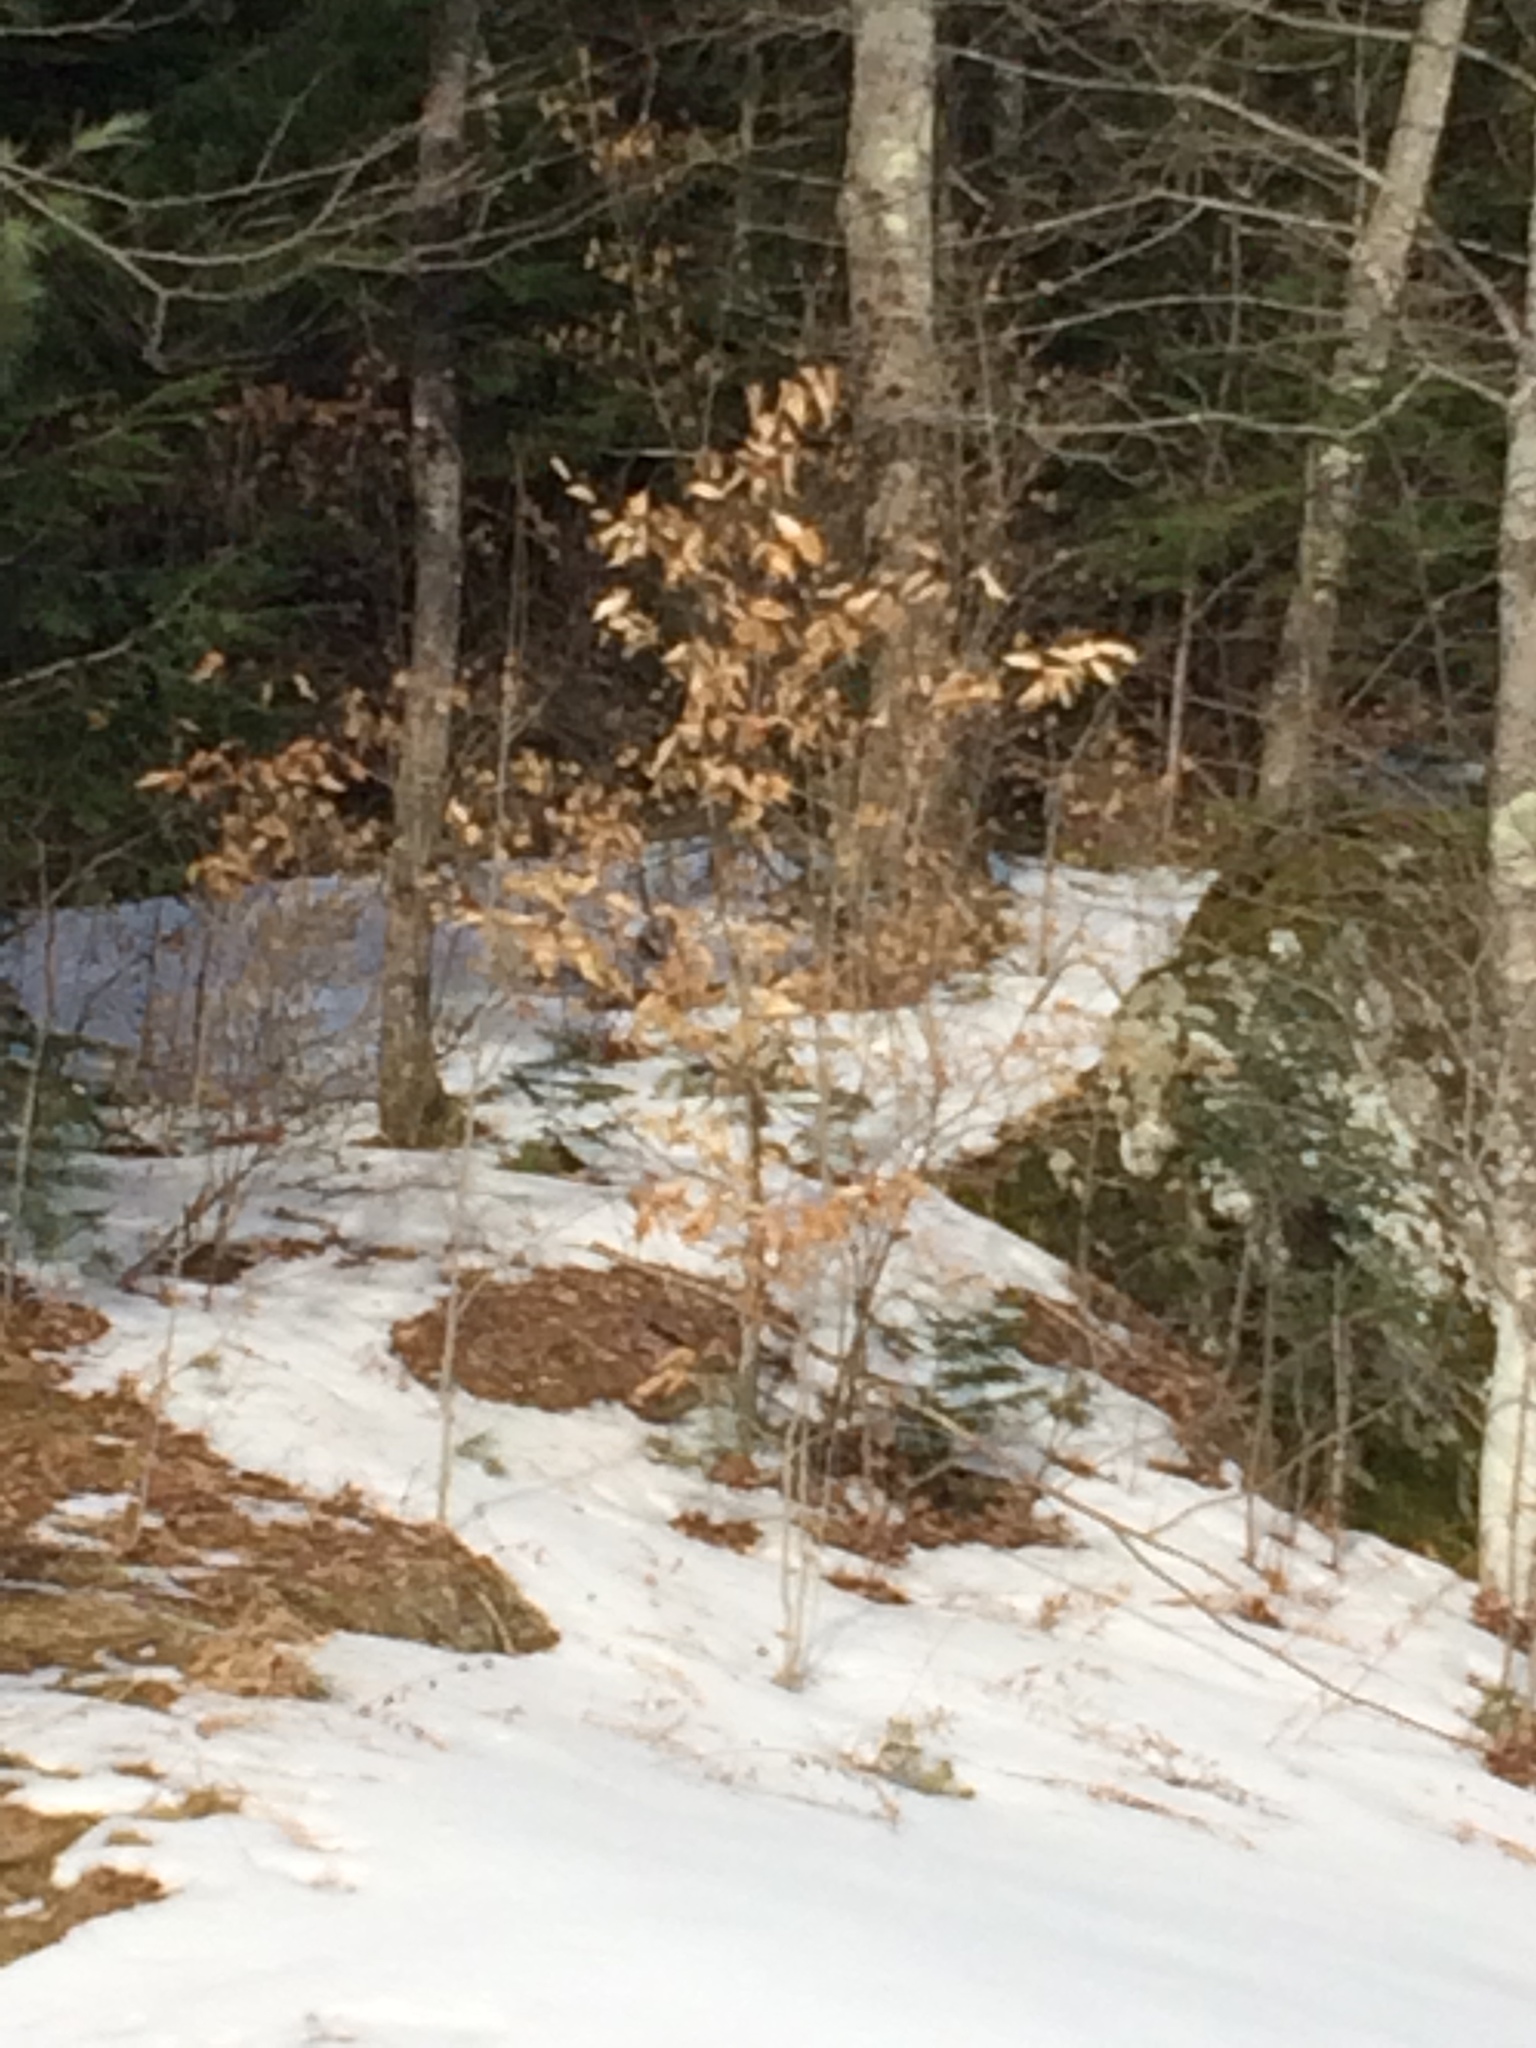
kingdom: Plantae
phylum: Tracheophyta
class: Magnoliopsida
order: Fagales
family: Fagaceae
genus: Fagus
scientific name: Fagus grandifolia
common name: American beech
